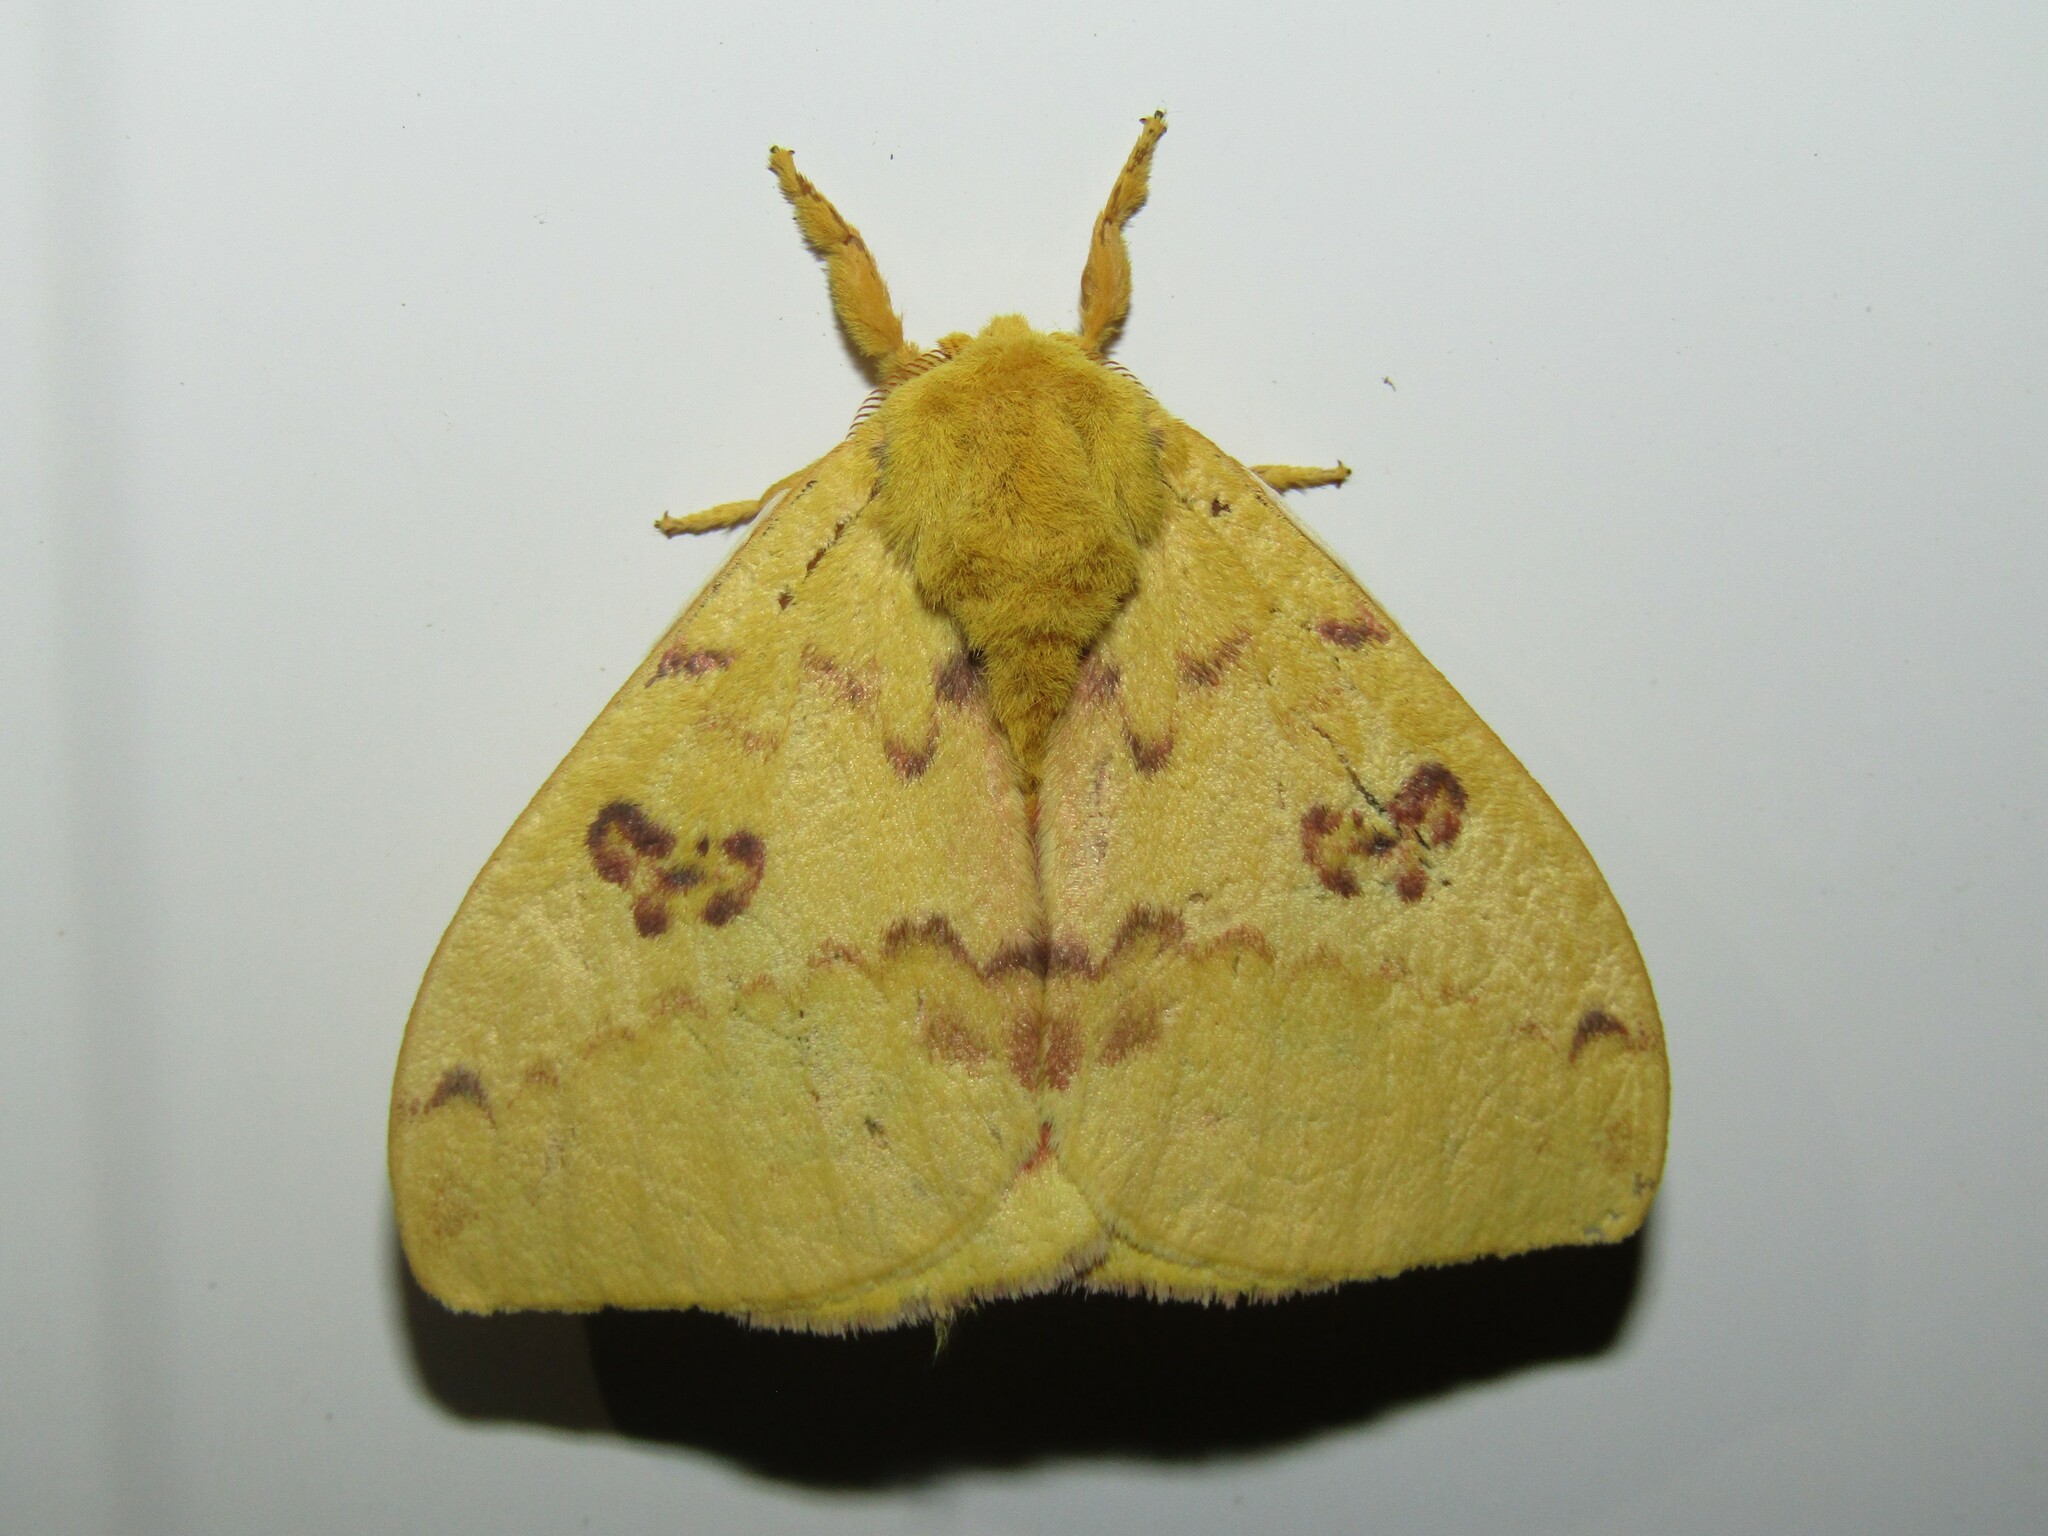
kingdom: Animalia
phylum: Arthropoda
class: Insecta
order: Lepidoptera
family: Saturniidae
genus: Automeris
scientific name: Automeris io
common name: Io moth
